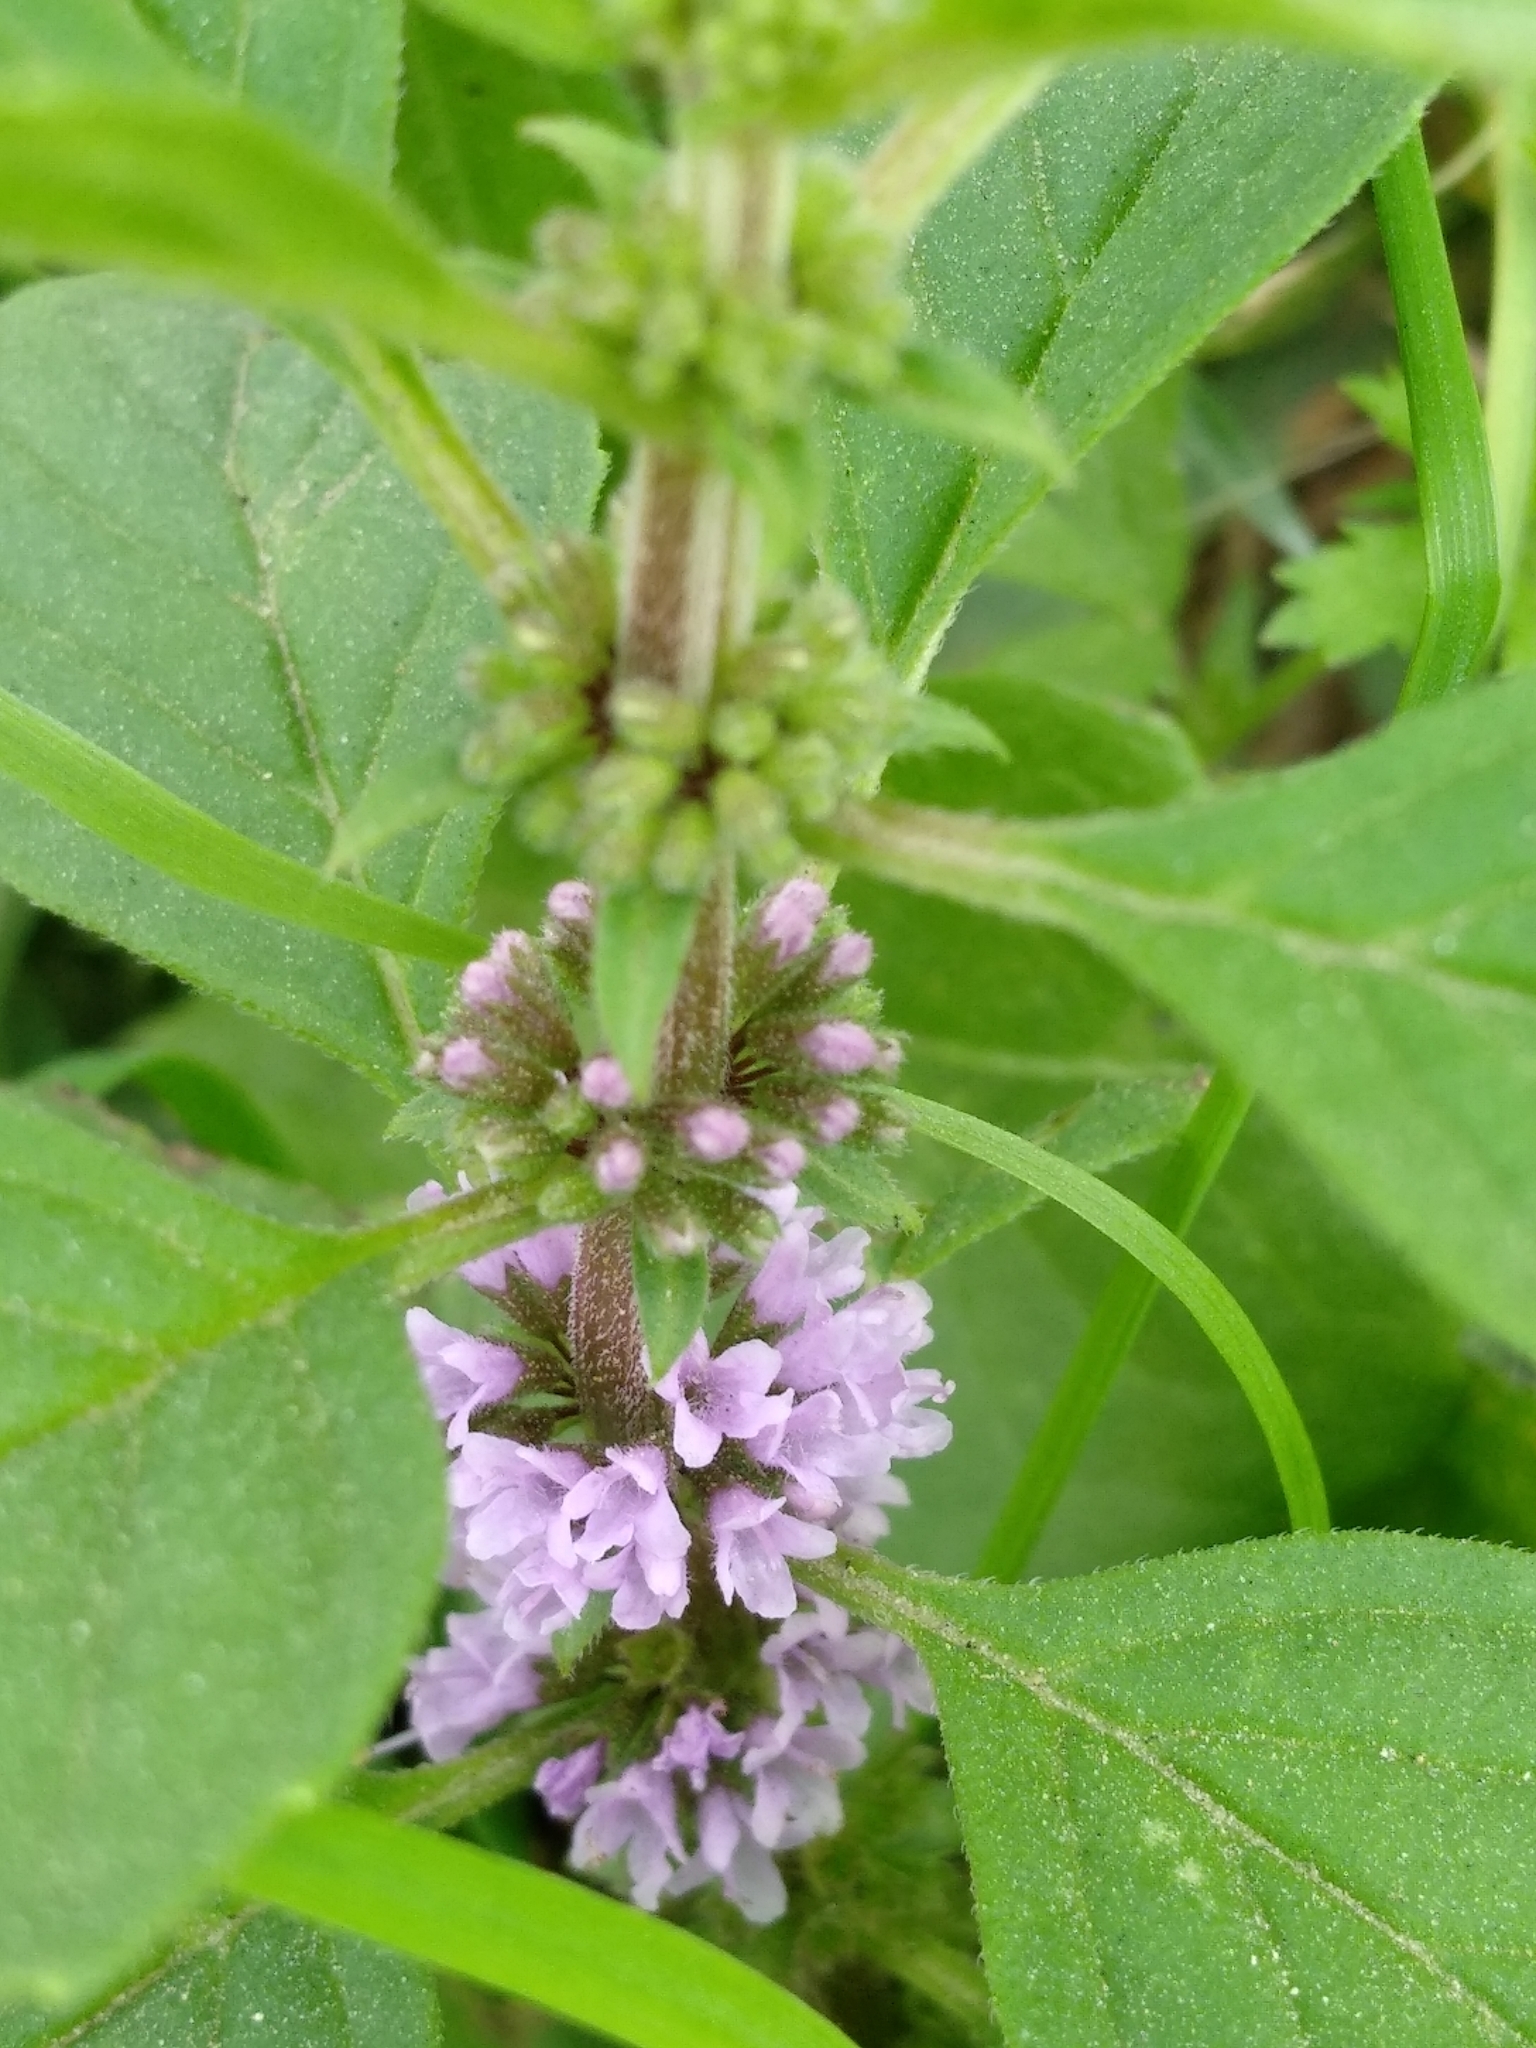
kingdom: Plantae
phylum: Tracheophyta
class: Magnoliopsida
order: Lamiales
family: Lamiaceae
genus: Mentha
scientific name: Mentha arvensis
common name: Corn mint
